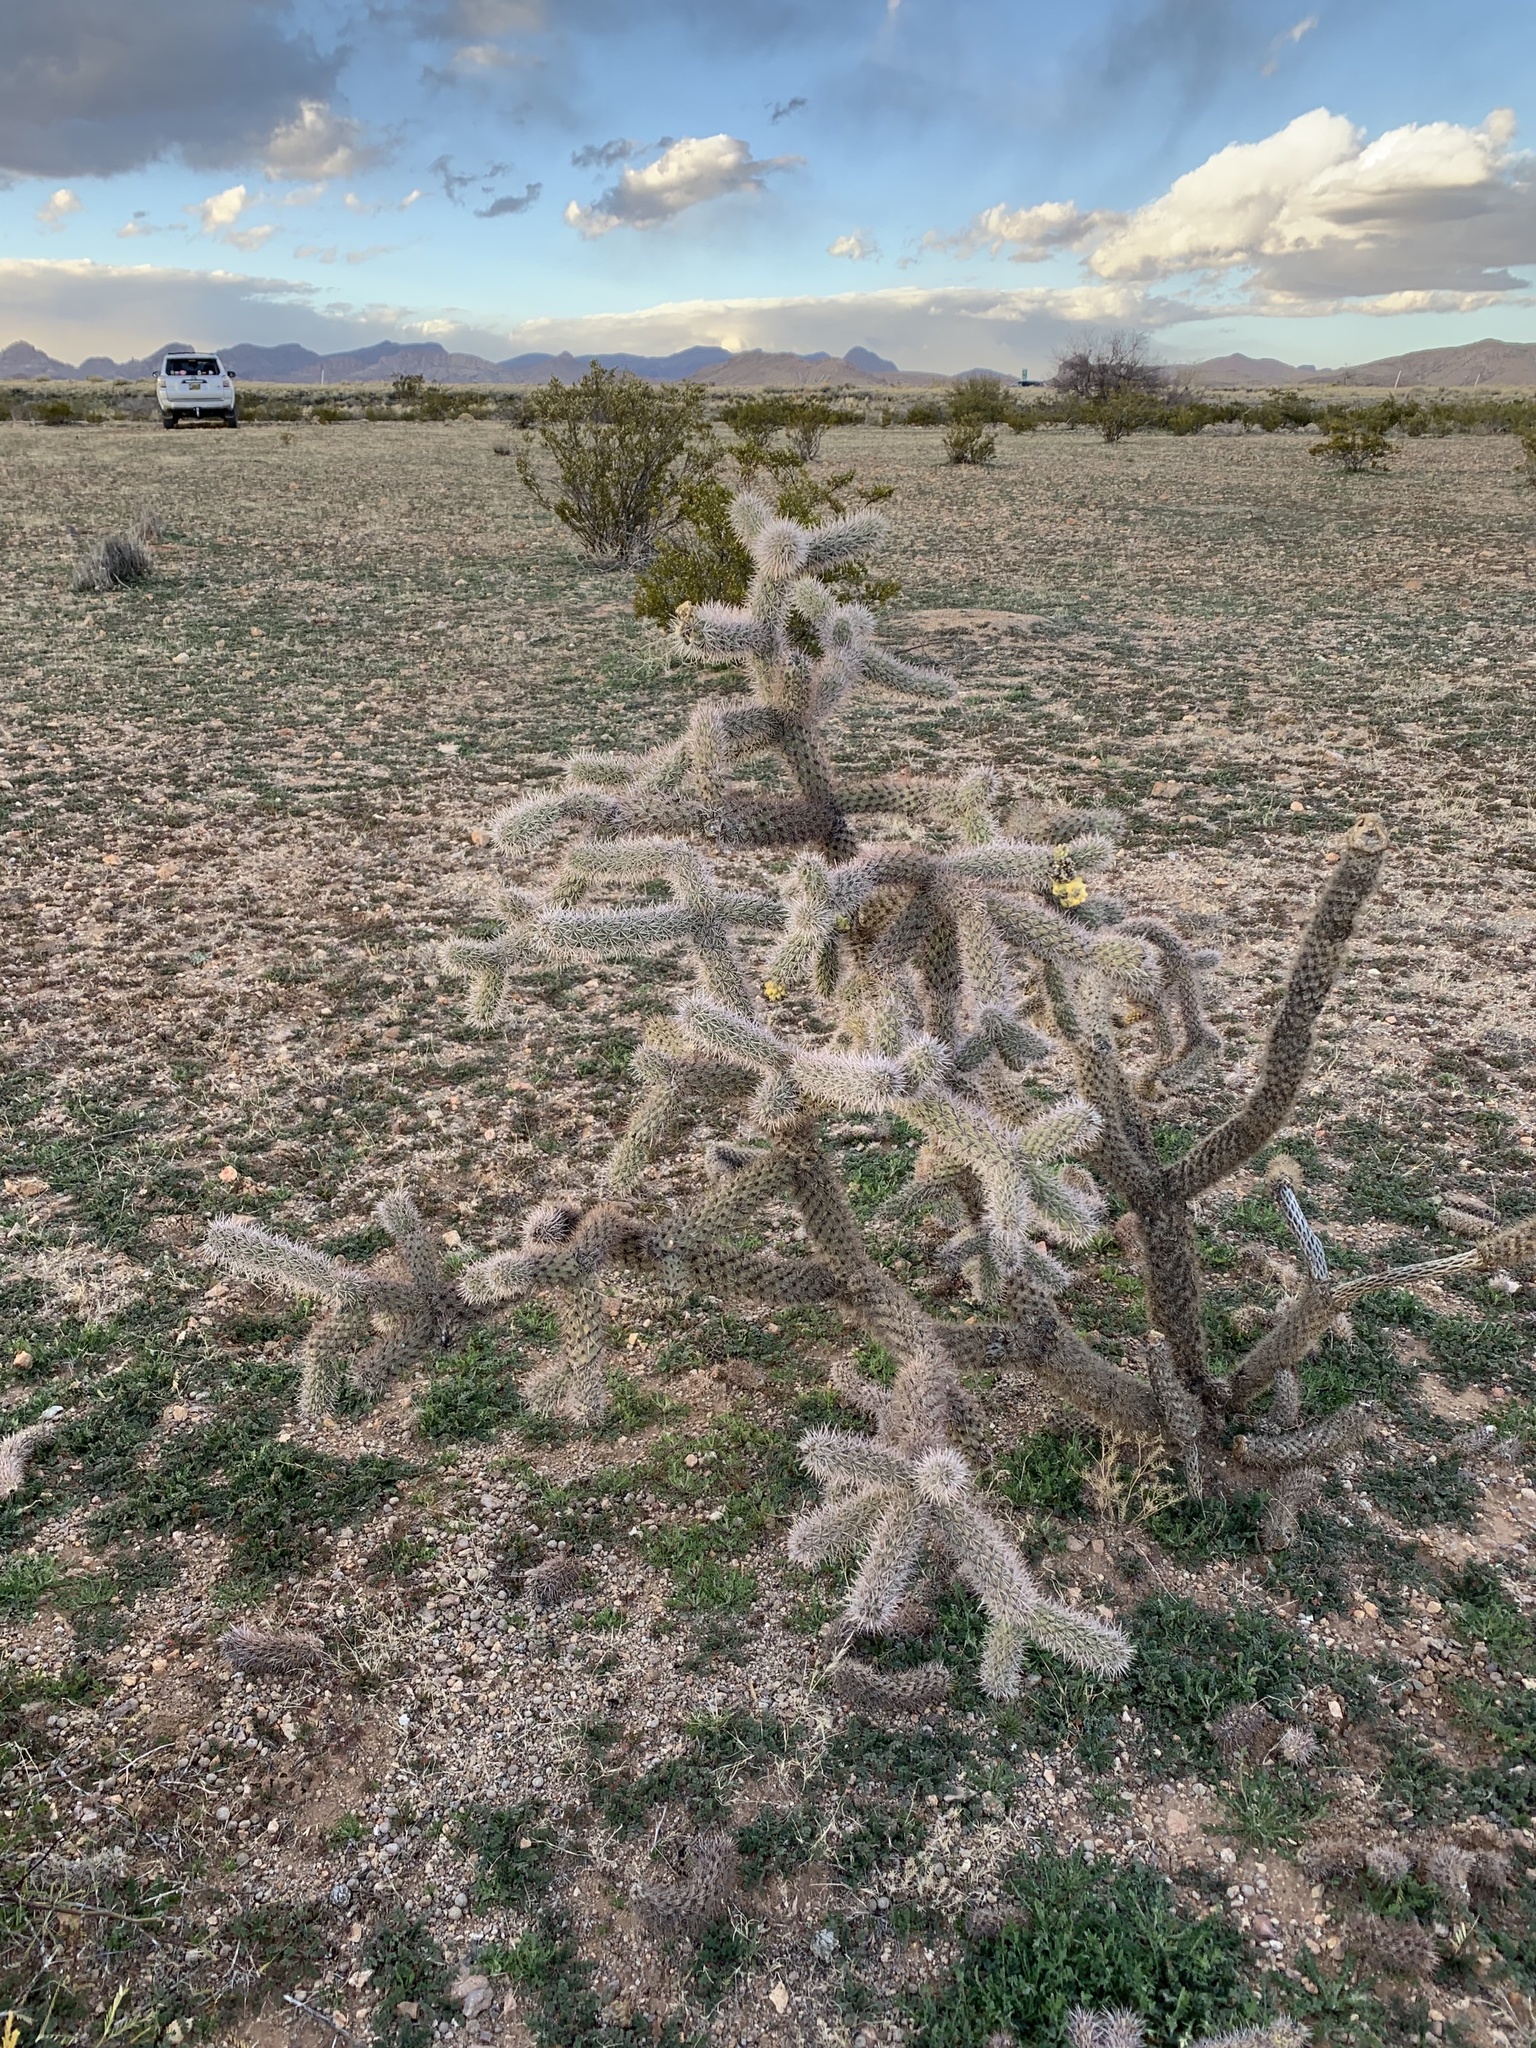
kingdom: Plantae
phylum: Tracheophyta
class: Magnoliopsida
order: Caryophyllales
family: Cactaceae
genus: Cylindropuntia
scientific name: Cylindropuntia imbricata
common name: Candelabrum cactus
